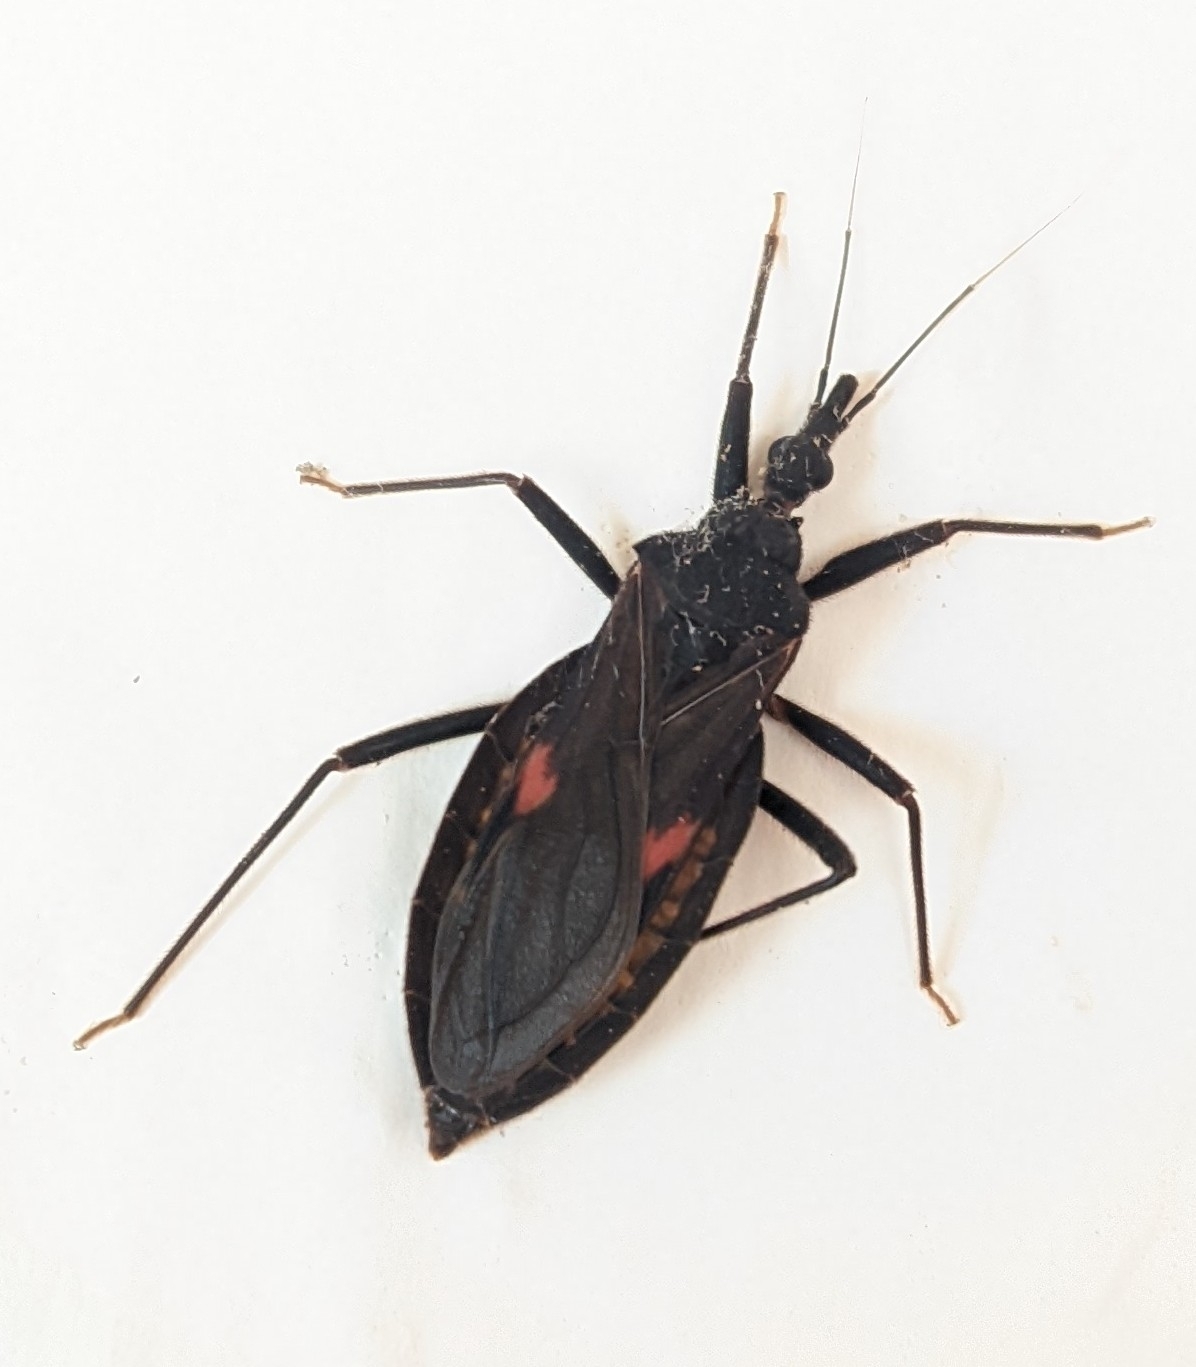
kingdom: Animalia
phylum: Arthropoda
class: Insecta
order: Hemiptera
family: Reduviidae
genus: Eratyrus
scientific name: Eratyrus cuspidatus
